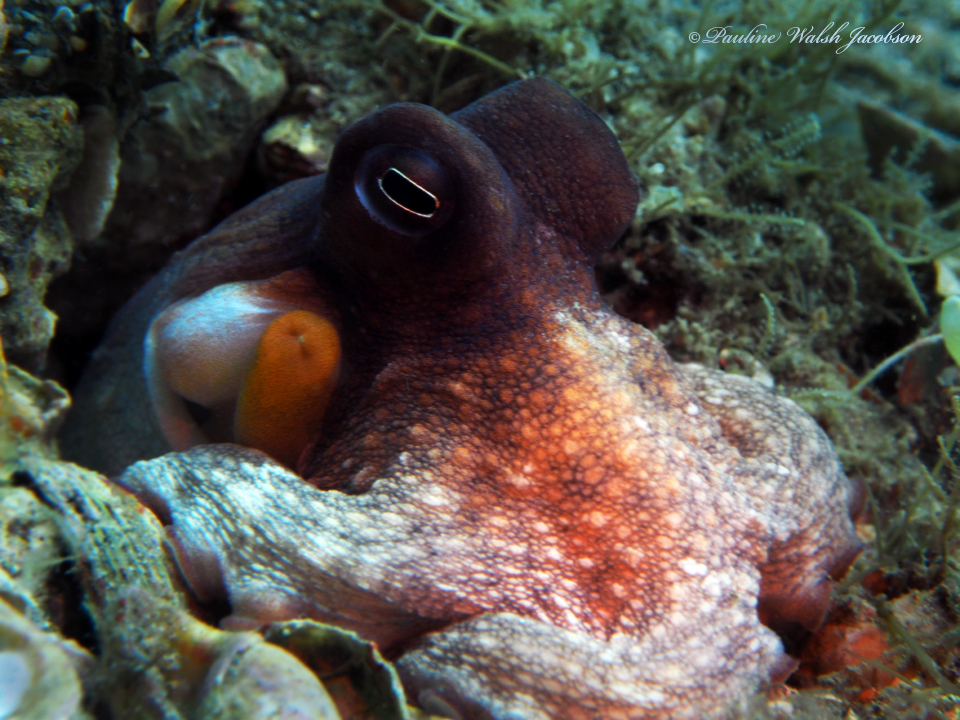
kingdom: Animalia
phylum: Mollusca
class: Cephalopoda
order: Octopoda
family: Octopodidae
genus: Octopus
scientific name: Octopus americanus
